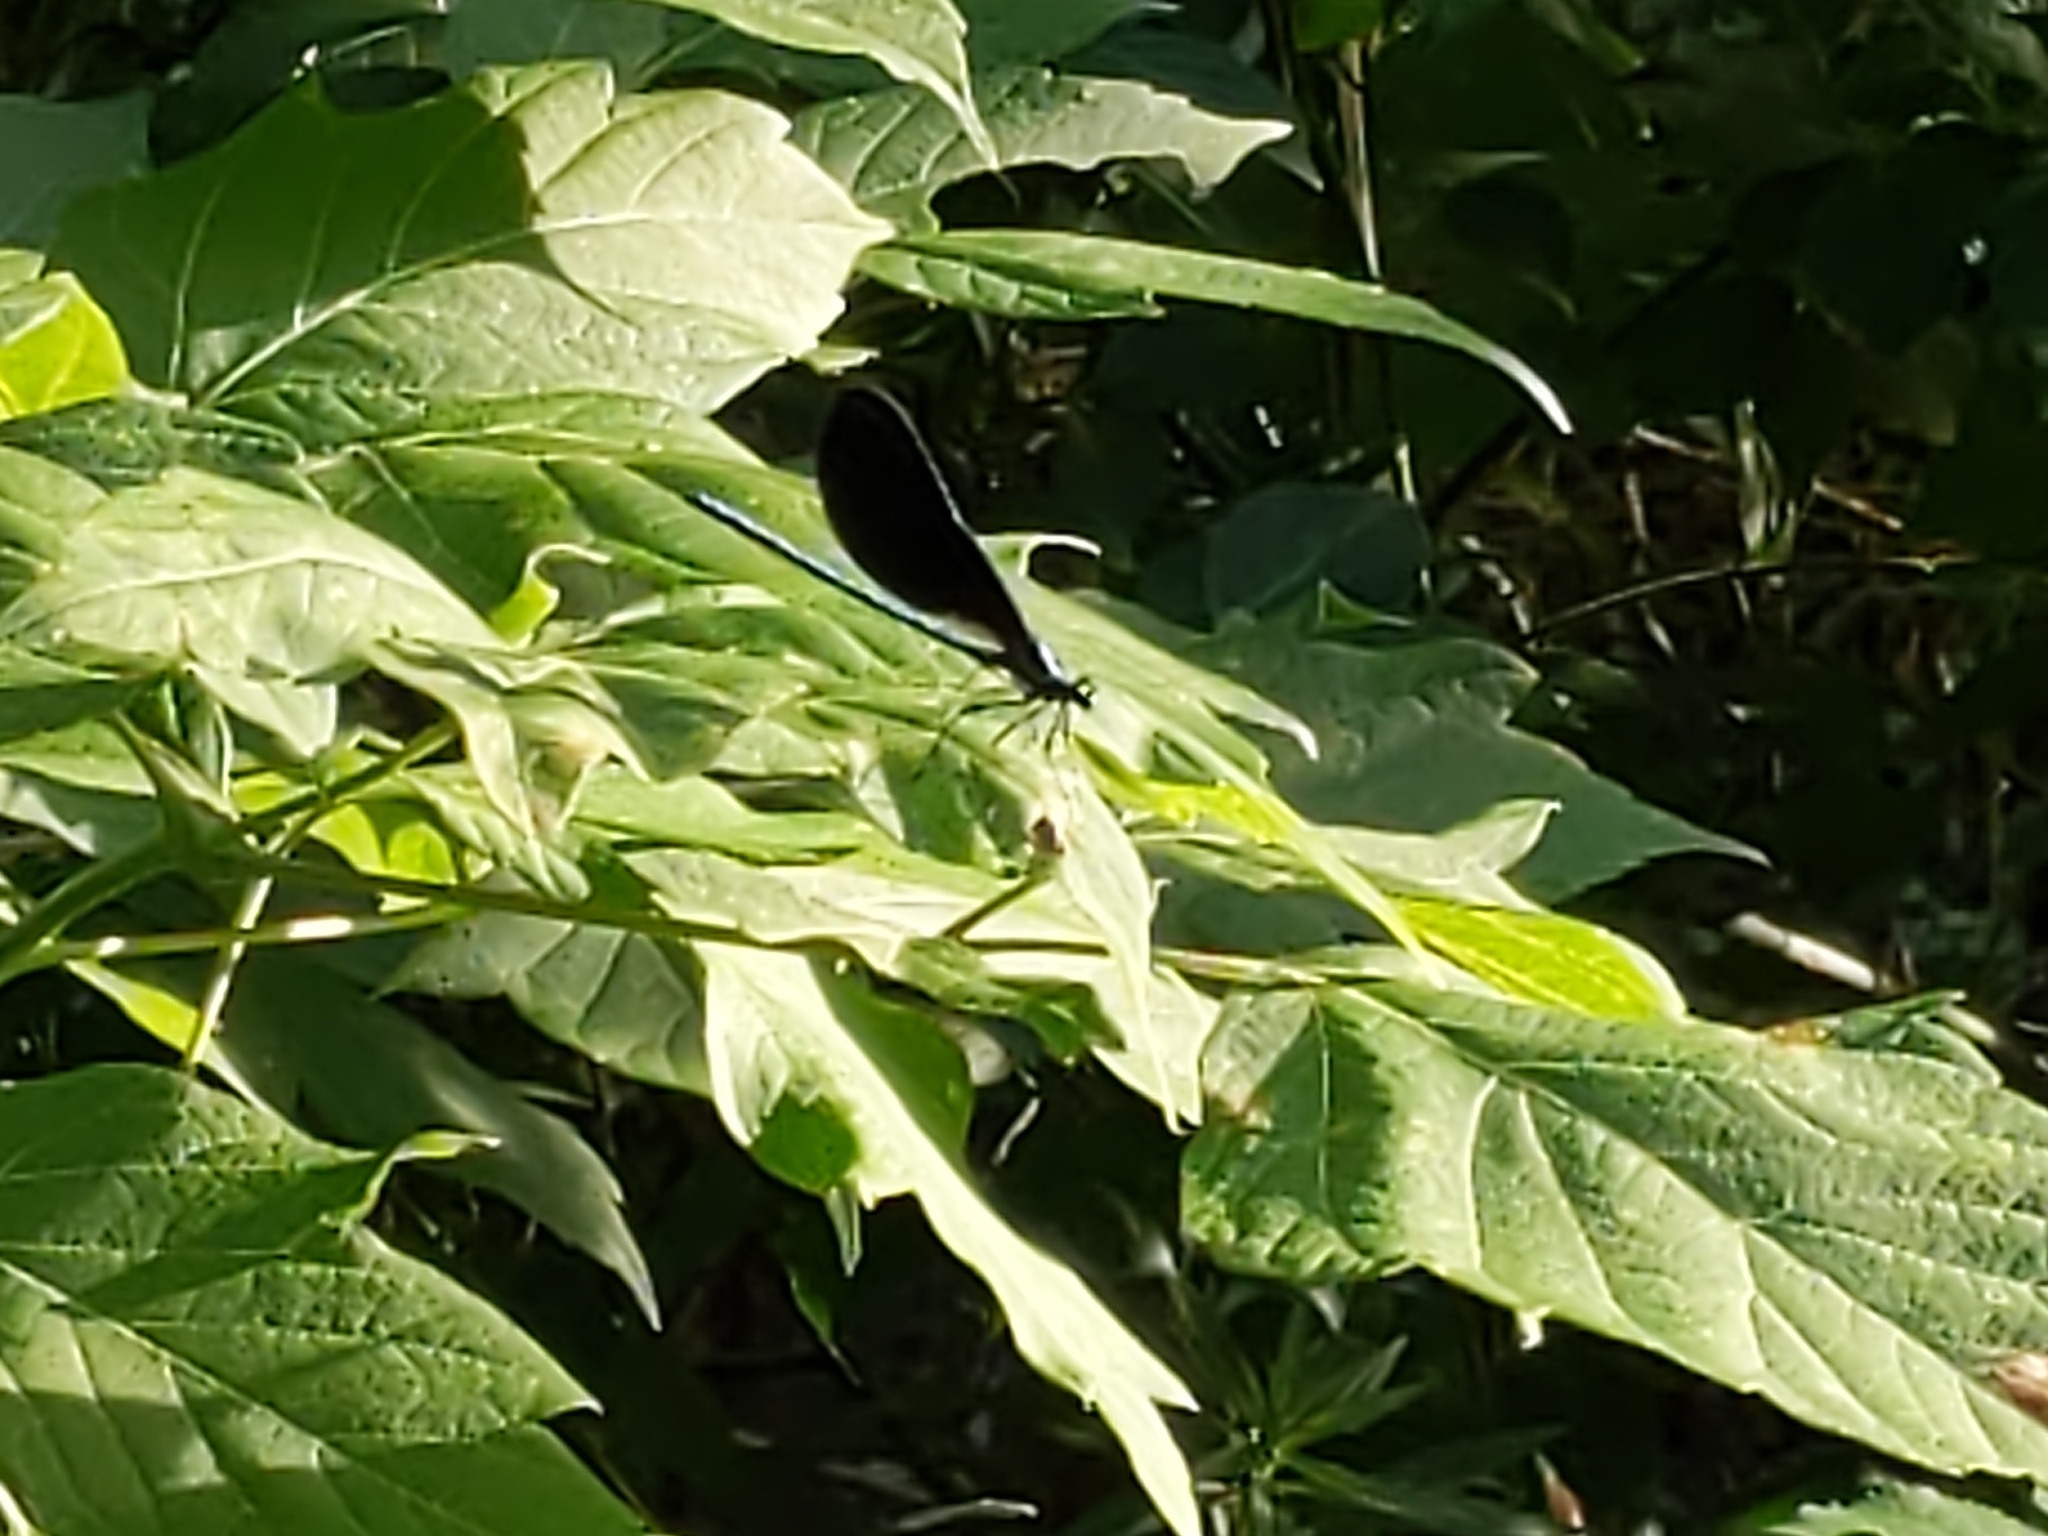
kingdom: Animalia
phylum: Arthropoda
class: Insecta
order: Odonata
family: Calopterygidae
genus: Calopteryx
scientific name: Calopteryx maculata
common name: Ebony jewelwing
